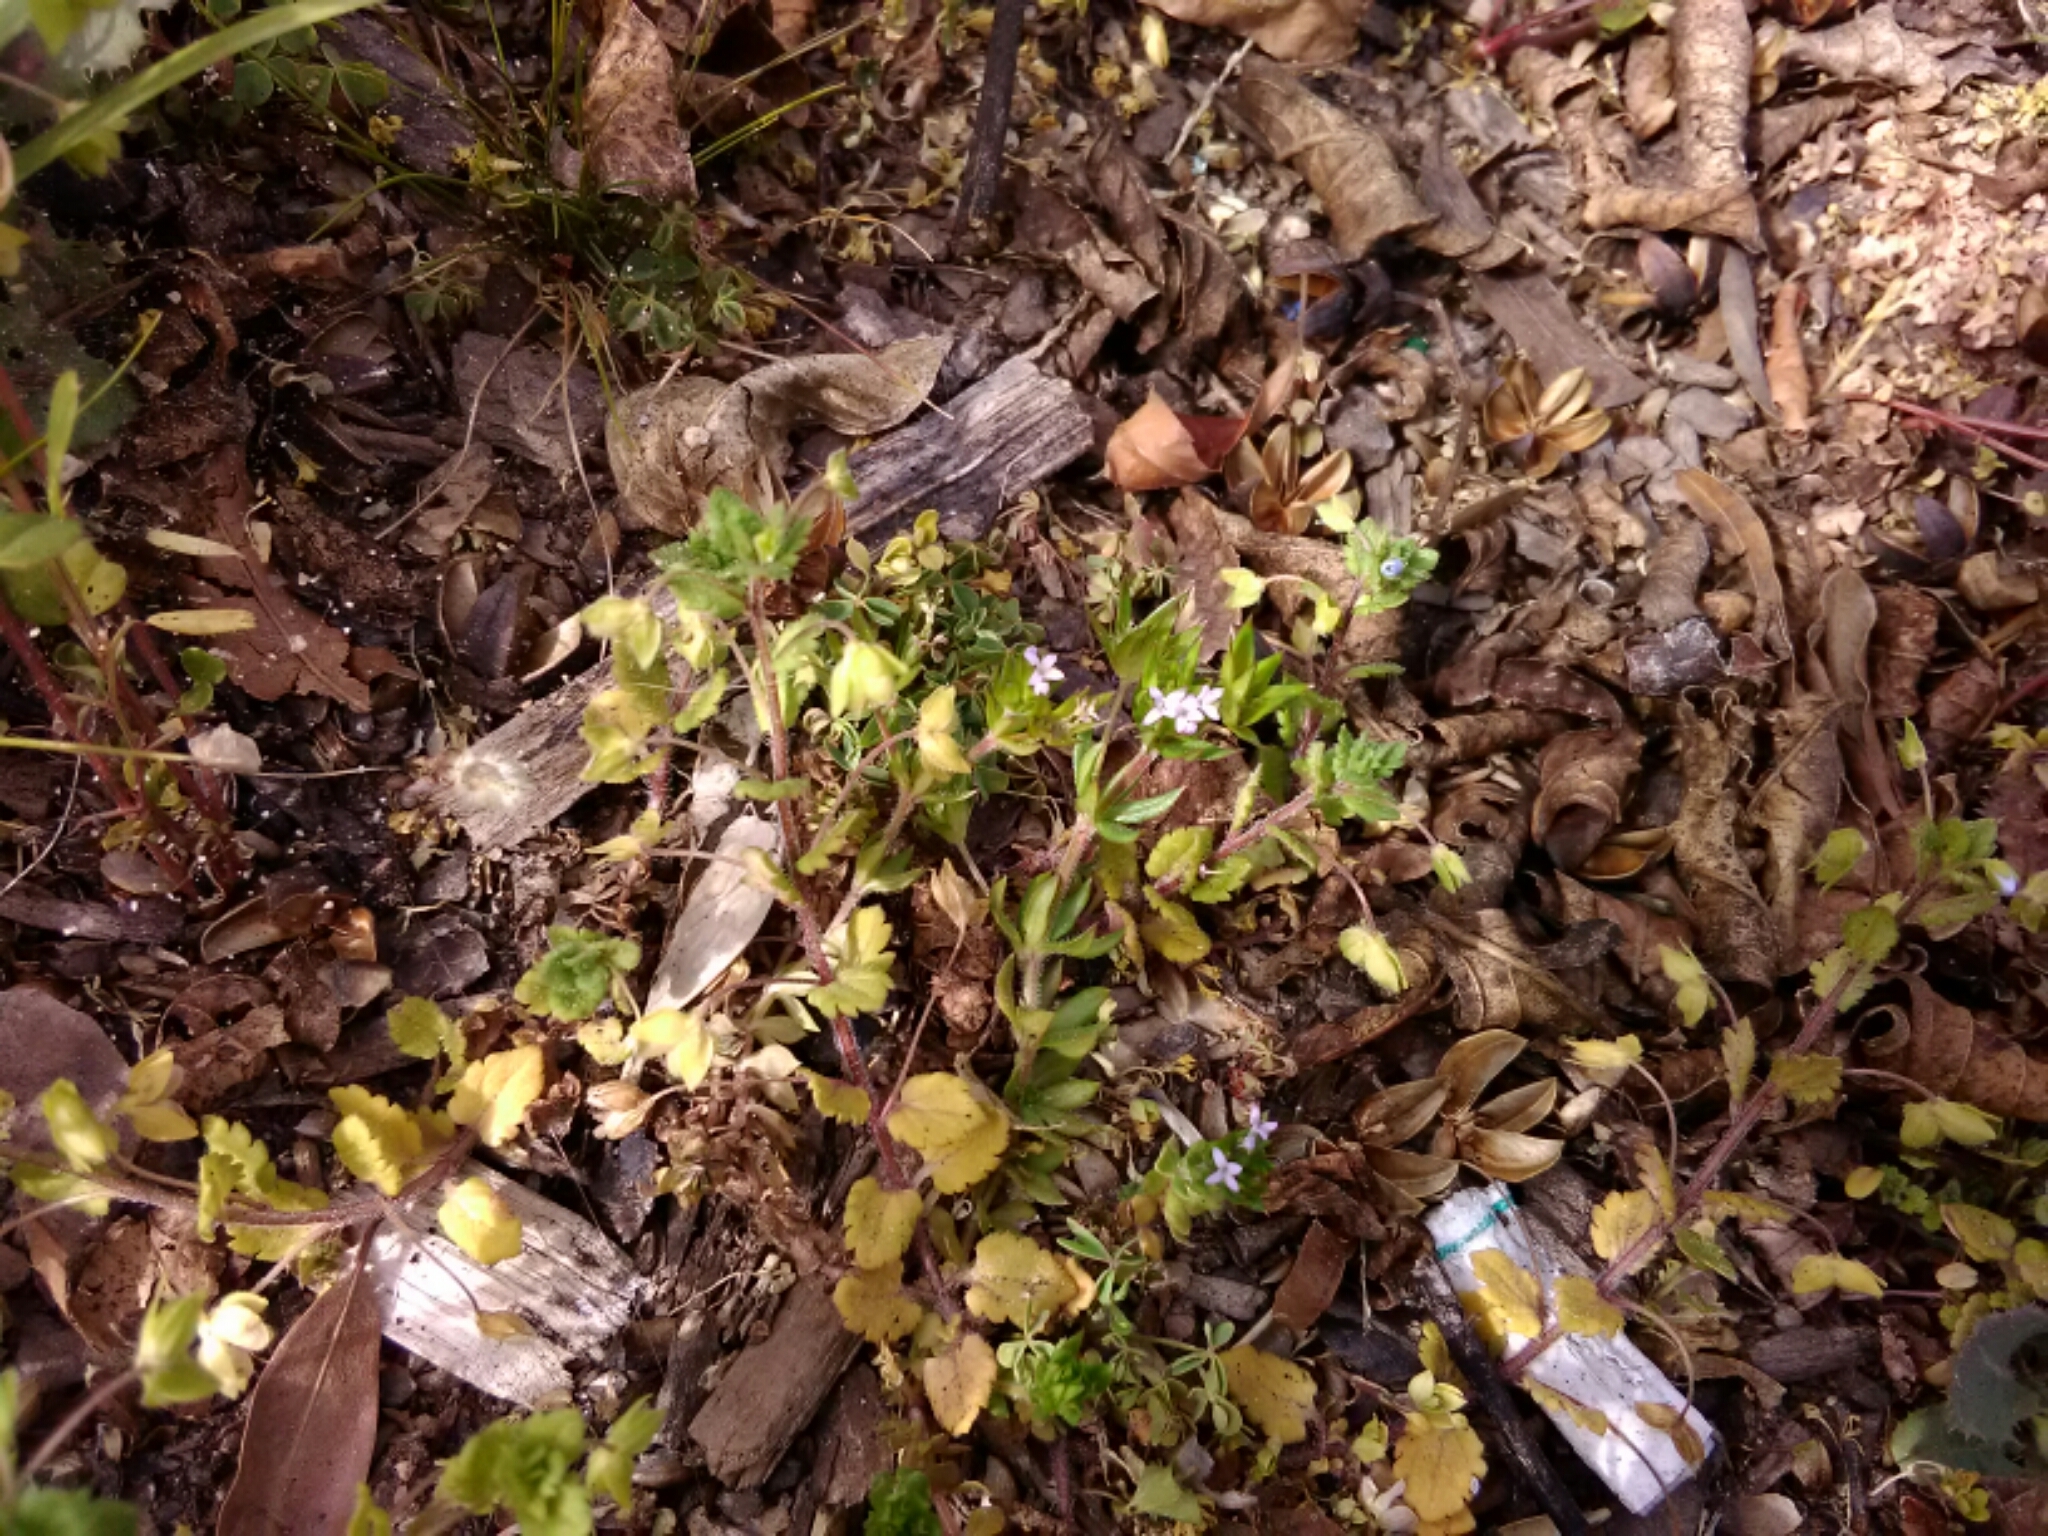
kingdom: Plantae
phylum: Tracheophyta
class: Magnoliopsida
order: Gentianales
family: Rubiaceae
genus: Sherardia
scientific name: Sherardia arvensis
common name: Field madder
